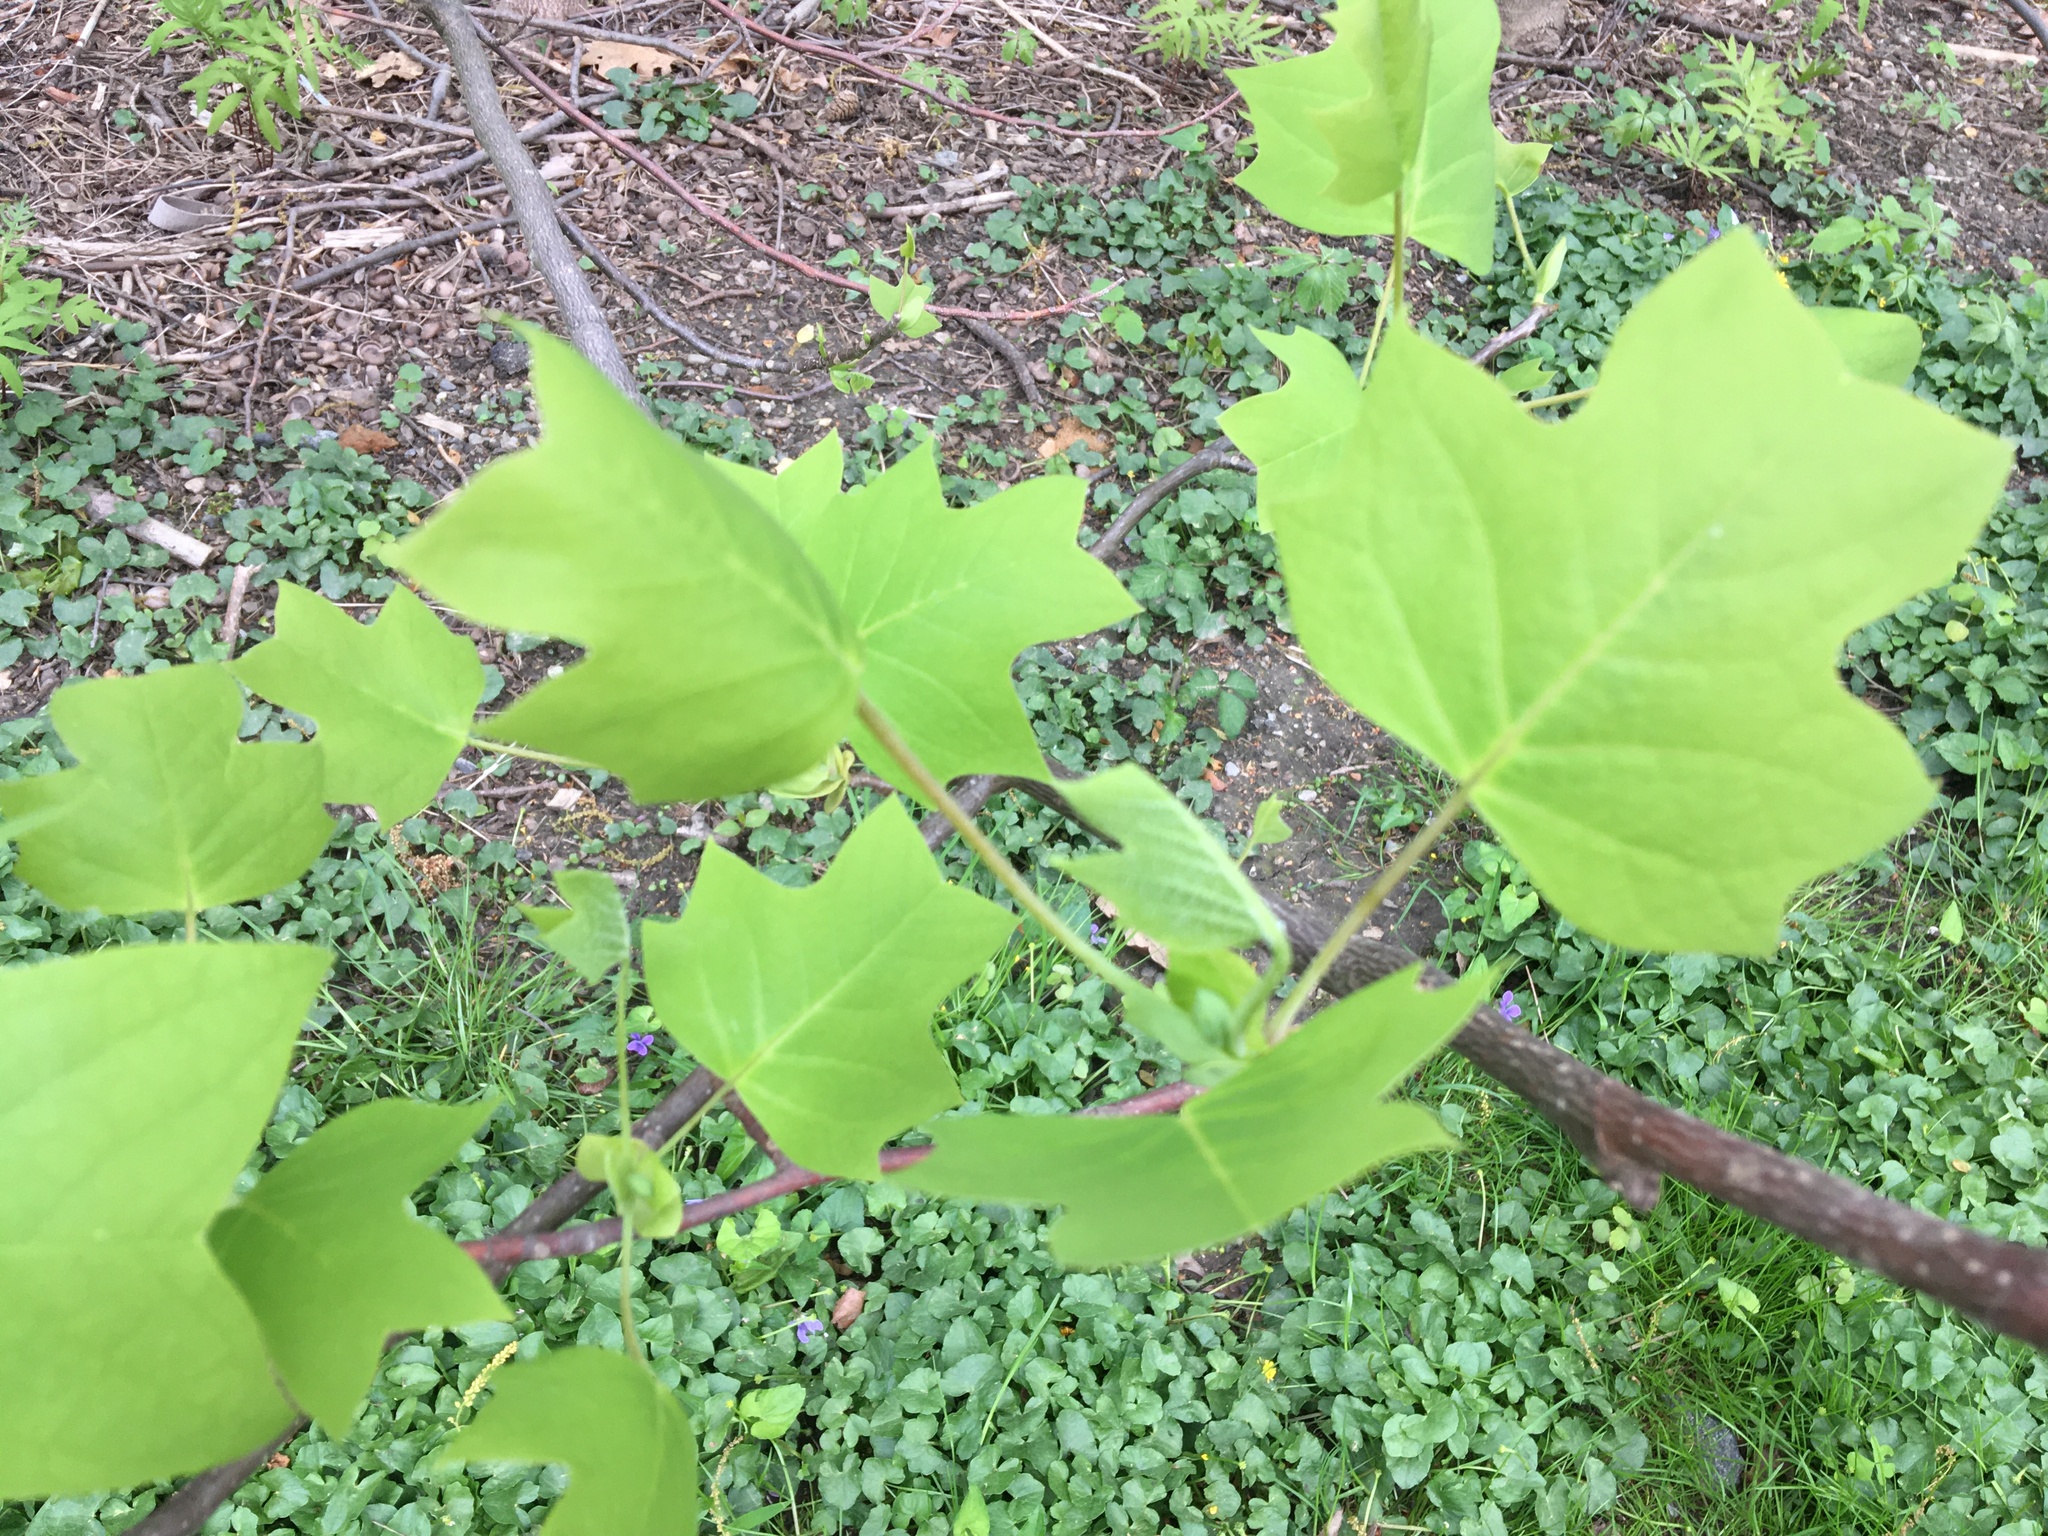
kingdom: Plantae
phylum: Tracheophyta
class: Magnoliopsida
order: Magnoliales
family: Magnoliaceae
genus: Liriodendron
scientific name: Liriodendron tulipifera
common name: Tulip tree
